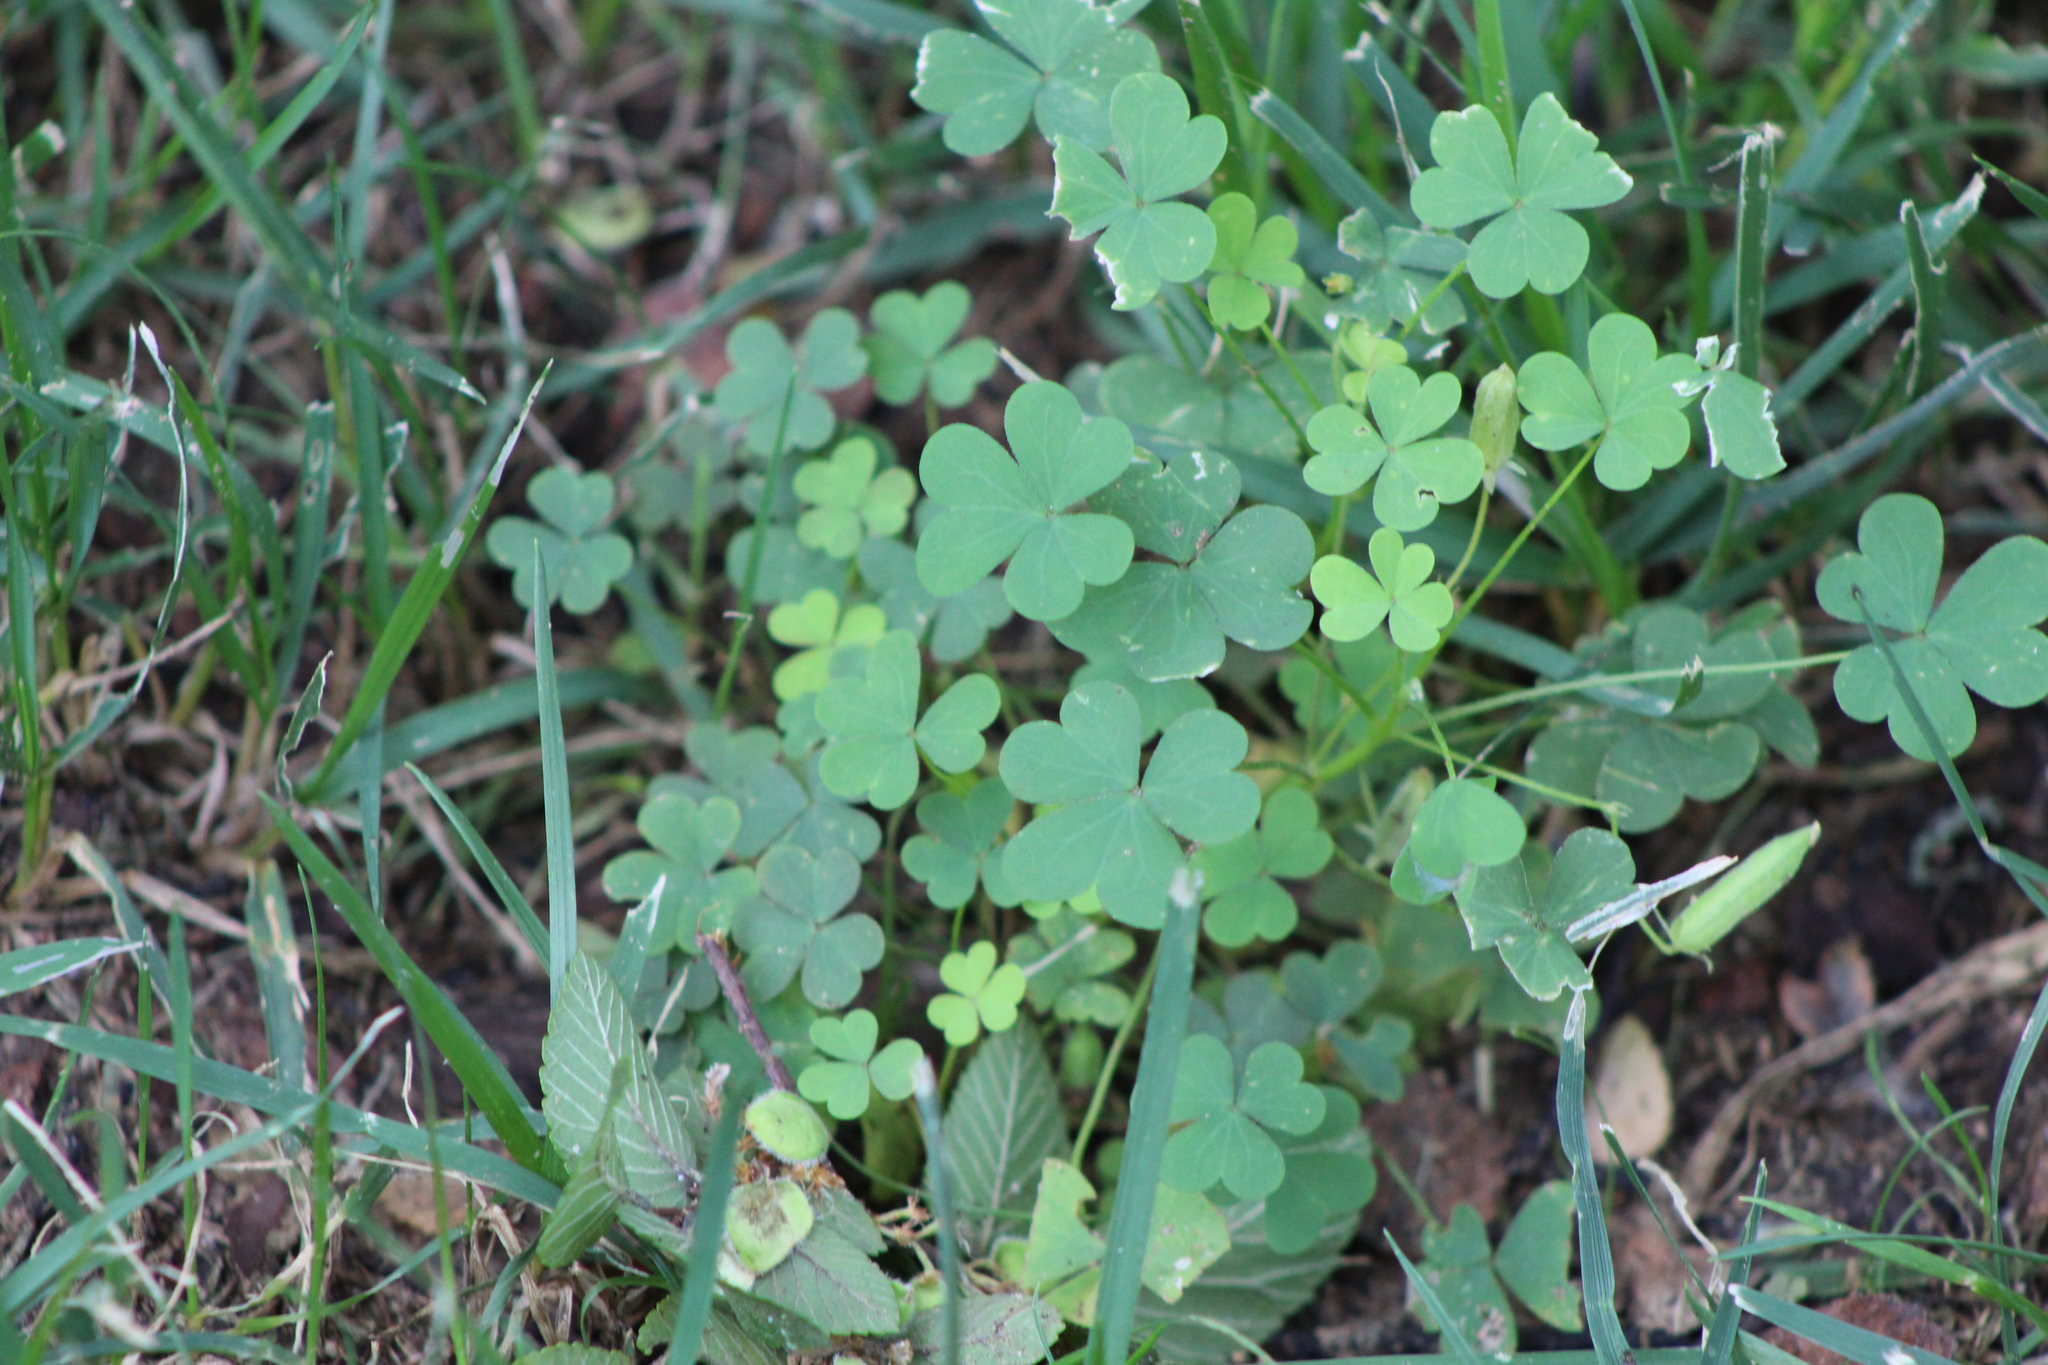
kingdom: Plantae
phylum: Tracheophyta
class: Magnoliopsida
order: Oxalidales
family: Oxalidaceae
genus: Oxalis
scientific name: Oxalis dillenii
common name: Sussex yellow-sorrel
